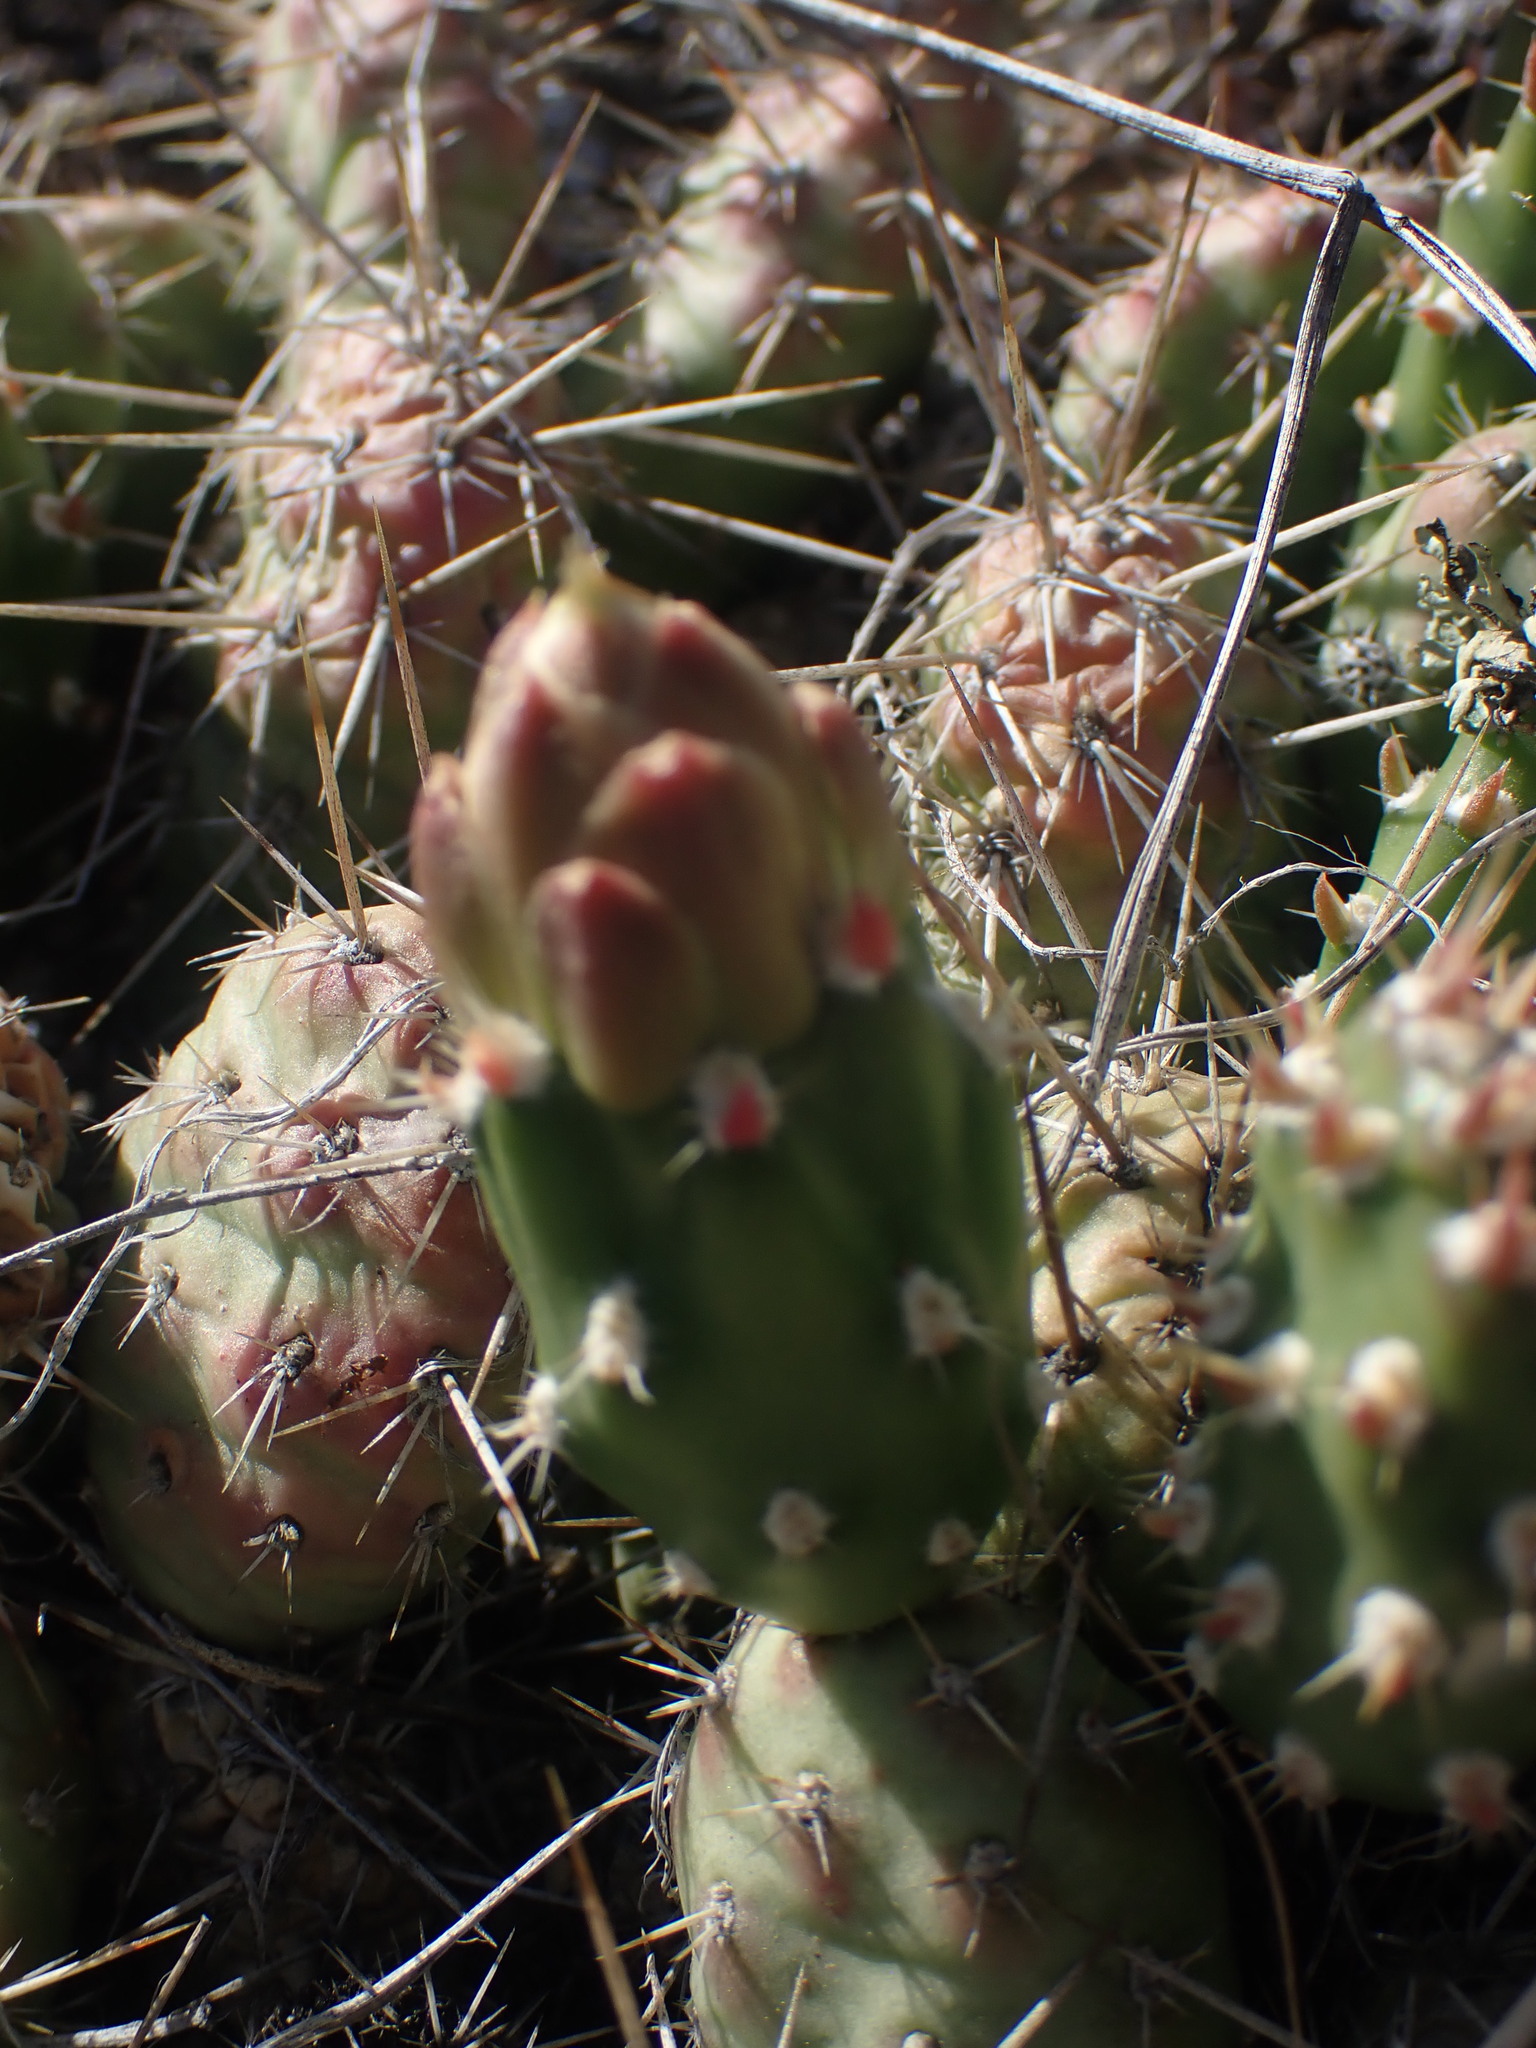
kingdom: Plantae
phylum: Tracheophyta
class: Magnoliopsida
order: Caryophyllales
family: Cactaceae
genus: Opuntia
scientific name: Opuntia fragilis
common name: Brittle cactus
